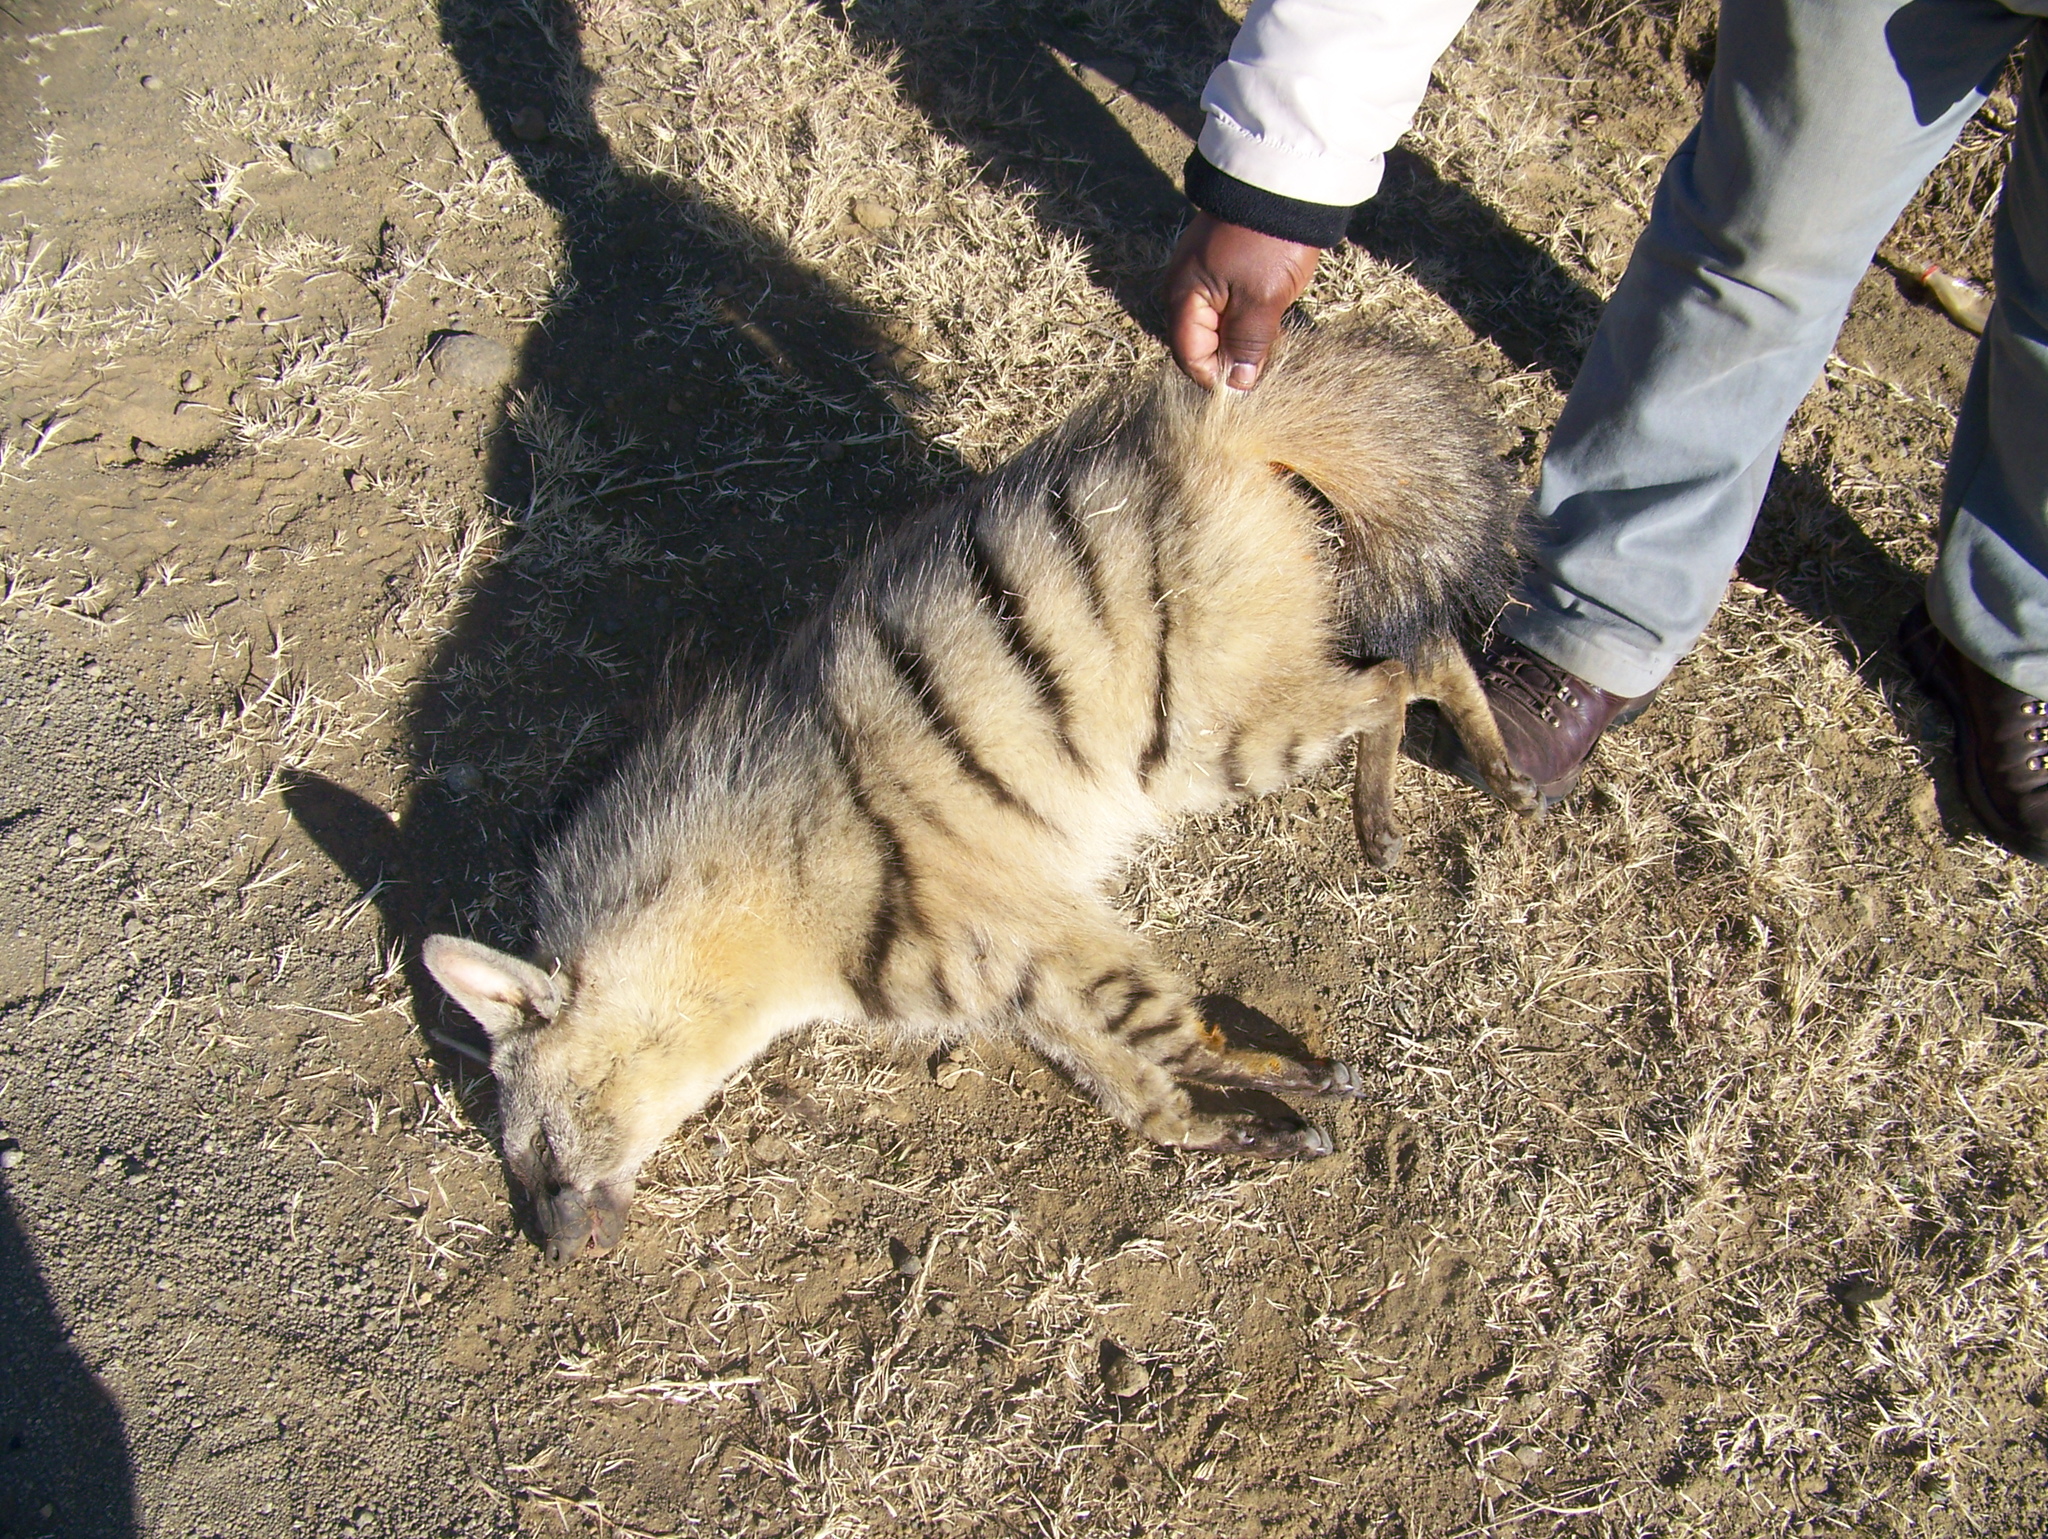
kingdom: Animalia
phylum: Chordata
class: Mammalia
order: Carnivora
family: Hyaenidae
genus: Proteles
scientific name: Proteles cristata
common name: Aardwolf
